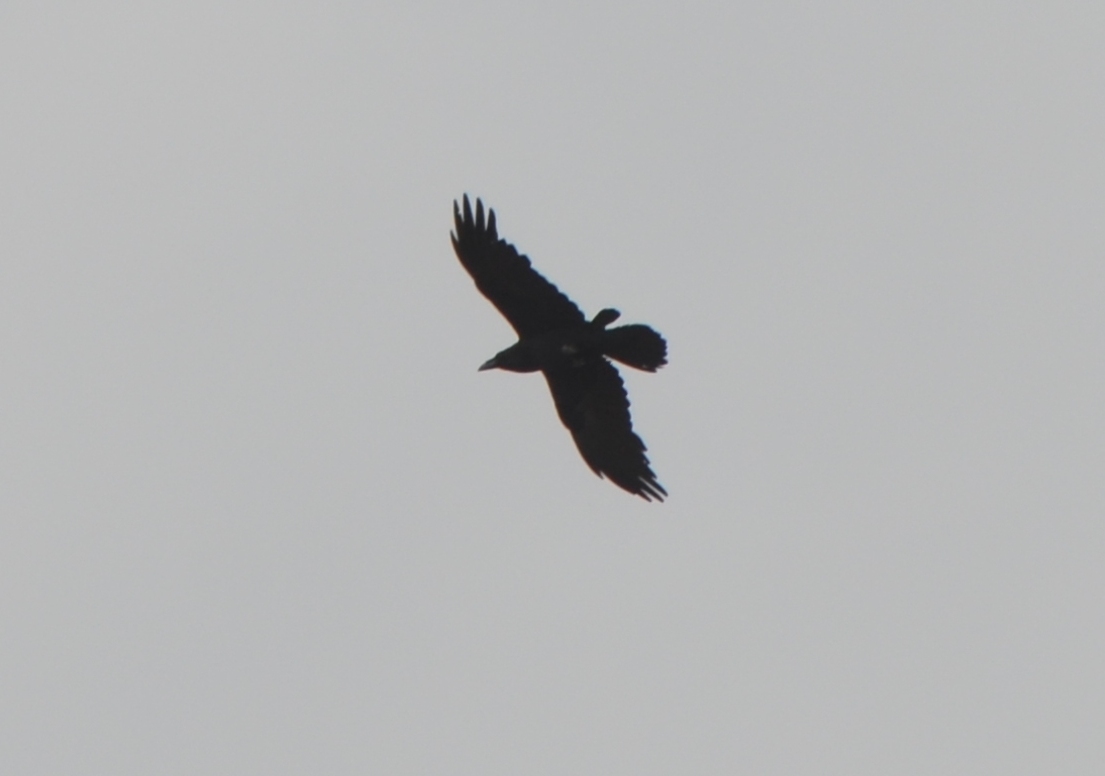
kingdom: Animalia
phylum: Chordata
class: Aves
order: Passeriformes
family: Corvidae
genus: Corvus
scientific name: Corvus corax
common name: Common raven
